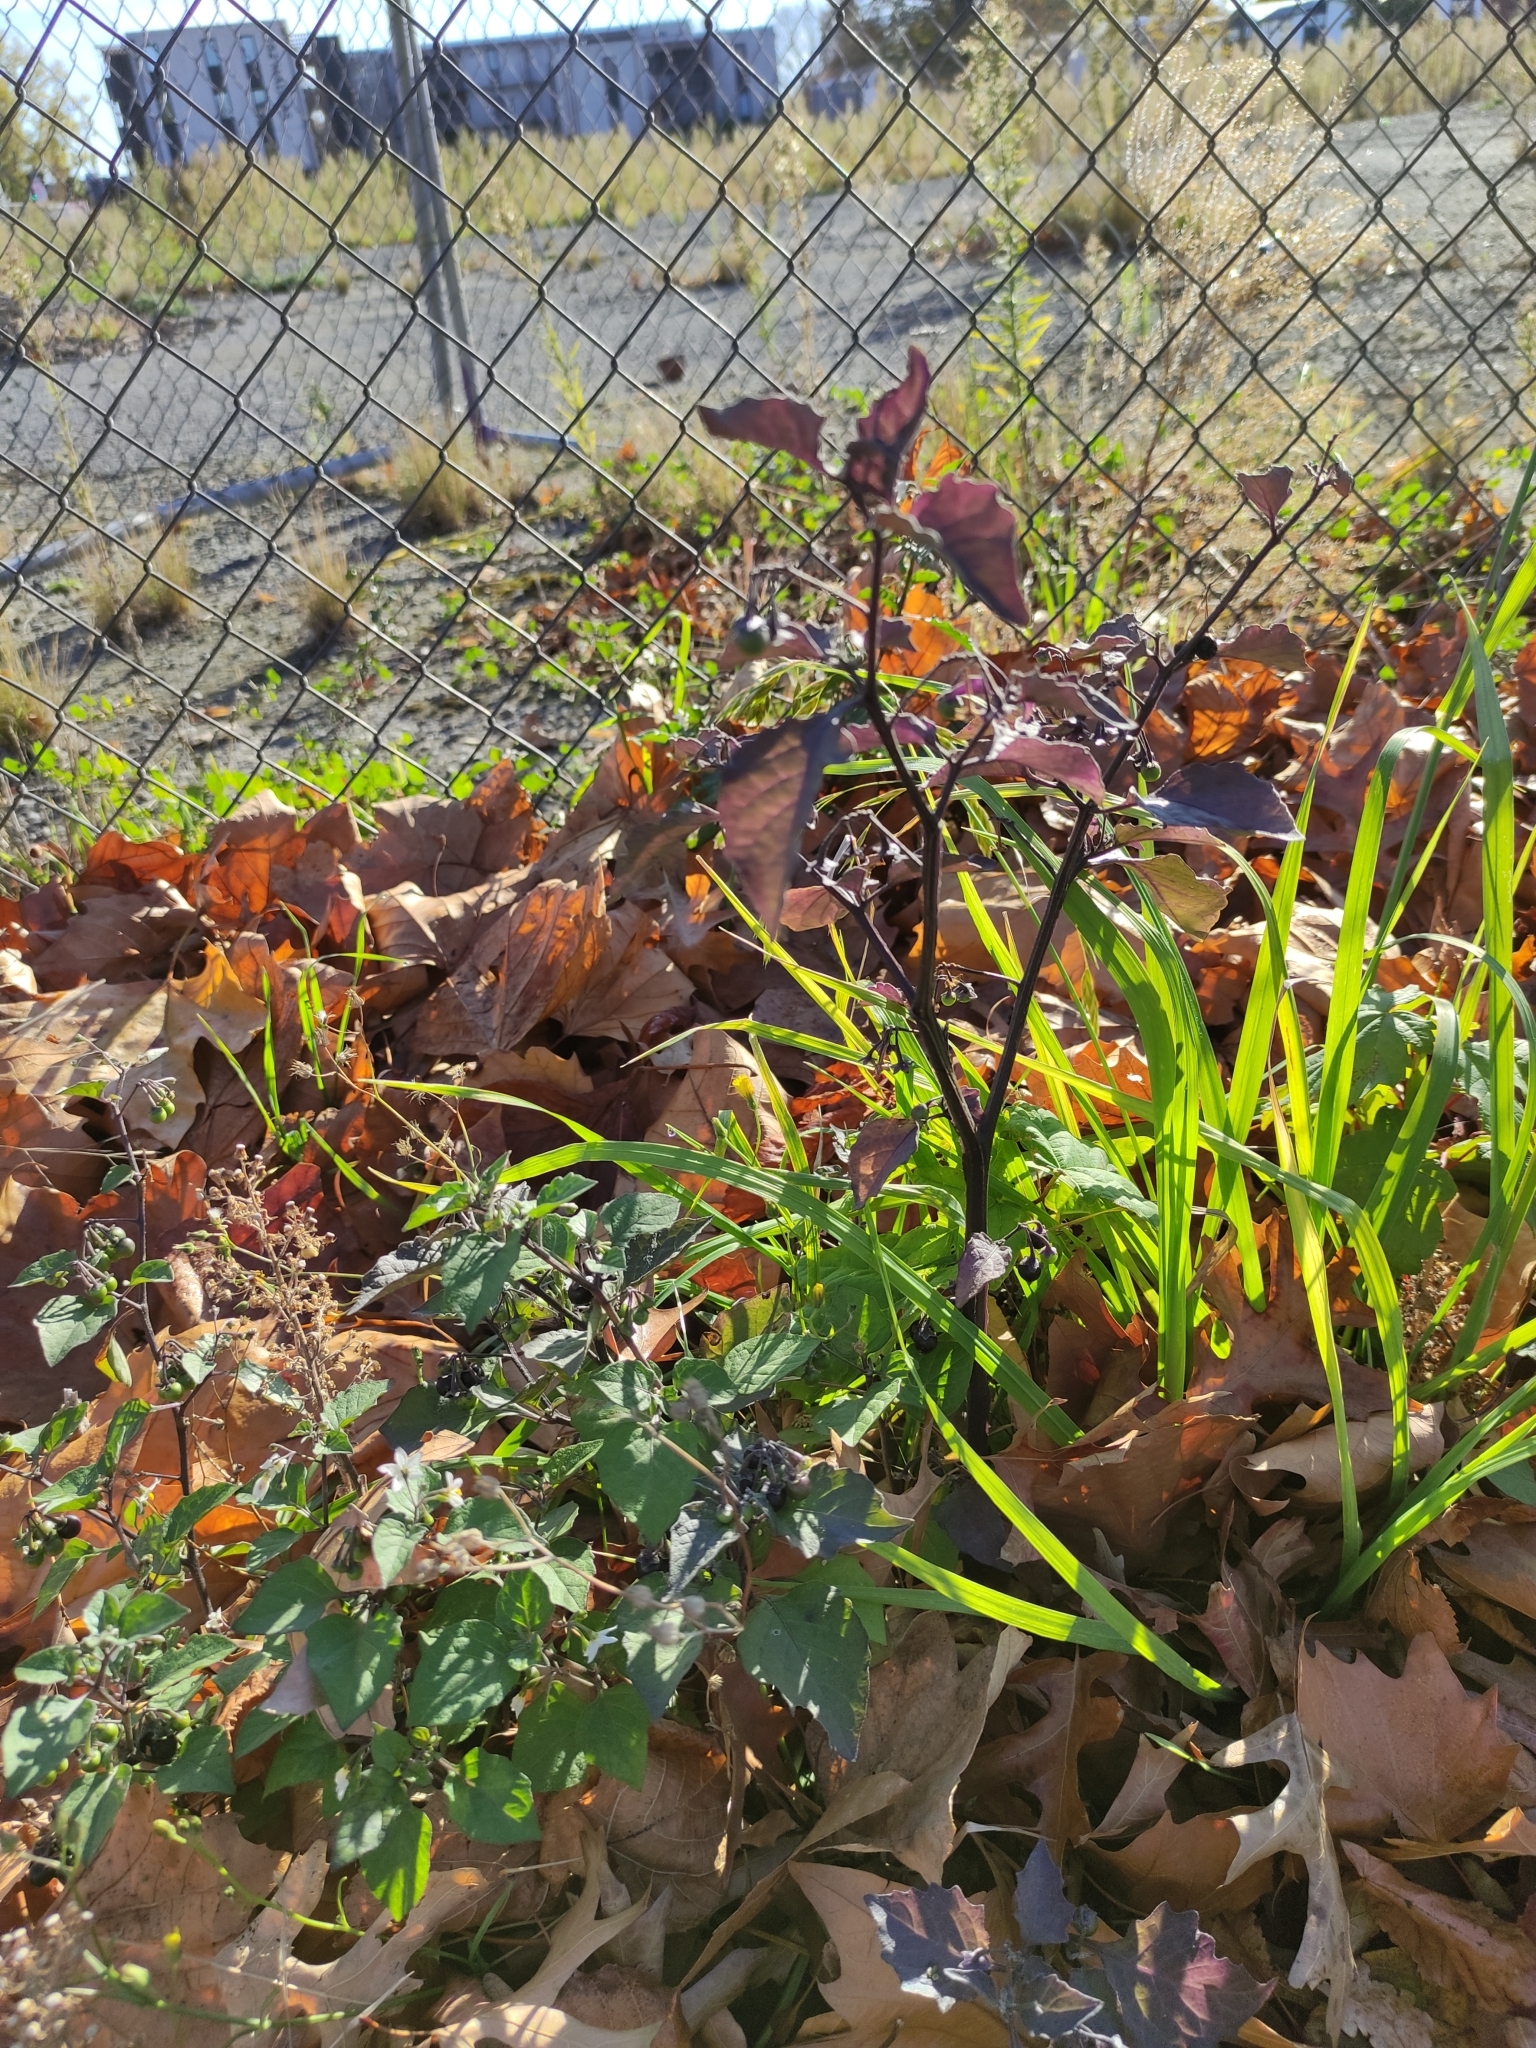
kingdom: Plantae
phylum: Tracheophyta
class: Magnoliopsida
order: Solanales
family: Solanaceae
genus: Solanum
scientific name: Solanum nigrum
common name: Black nightshade
